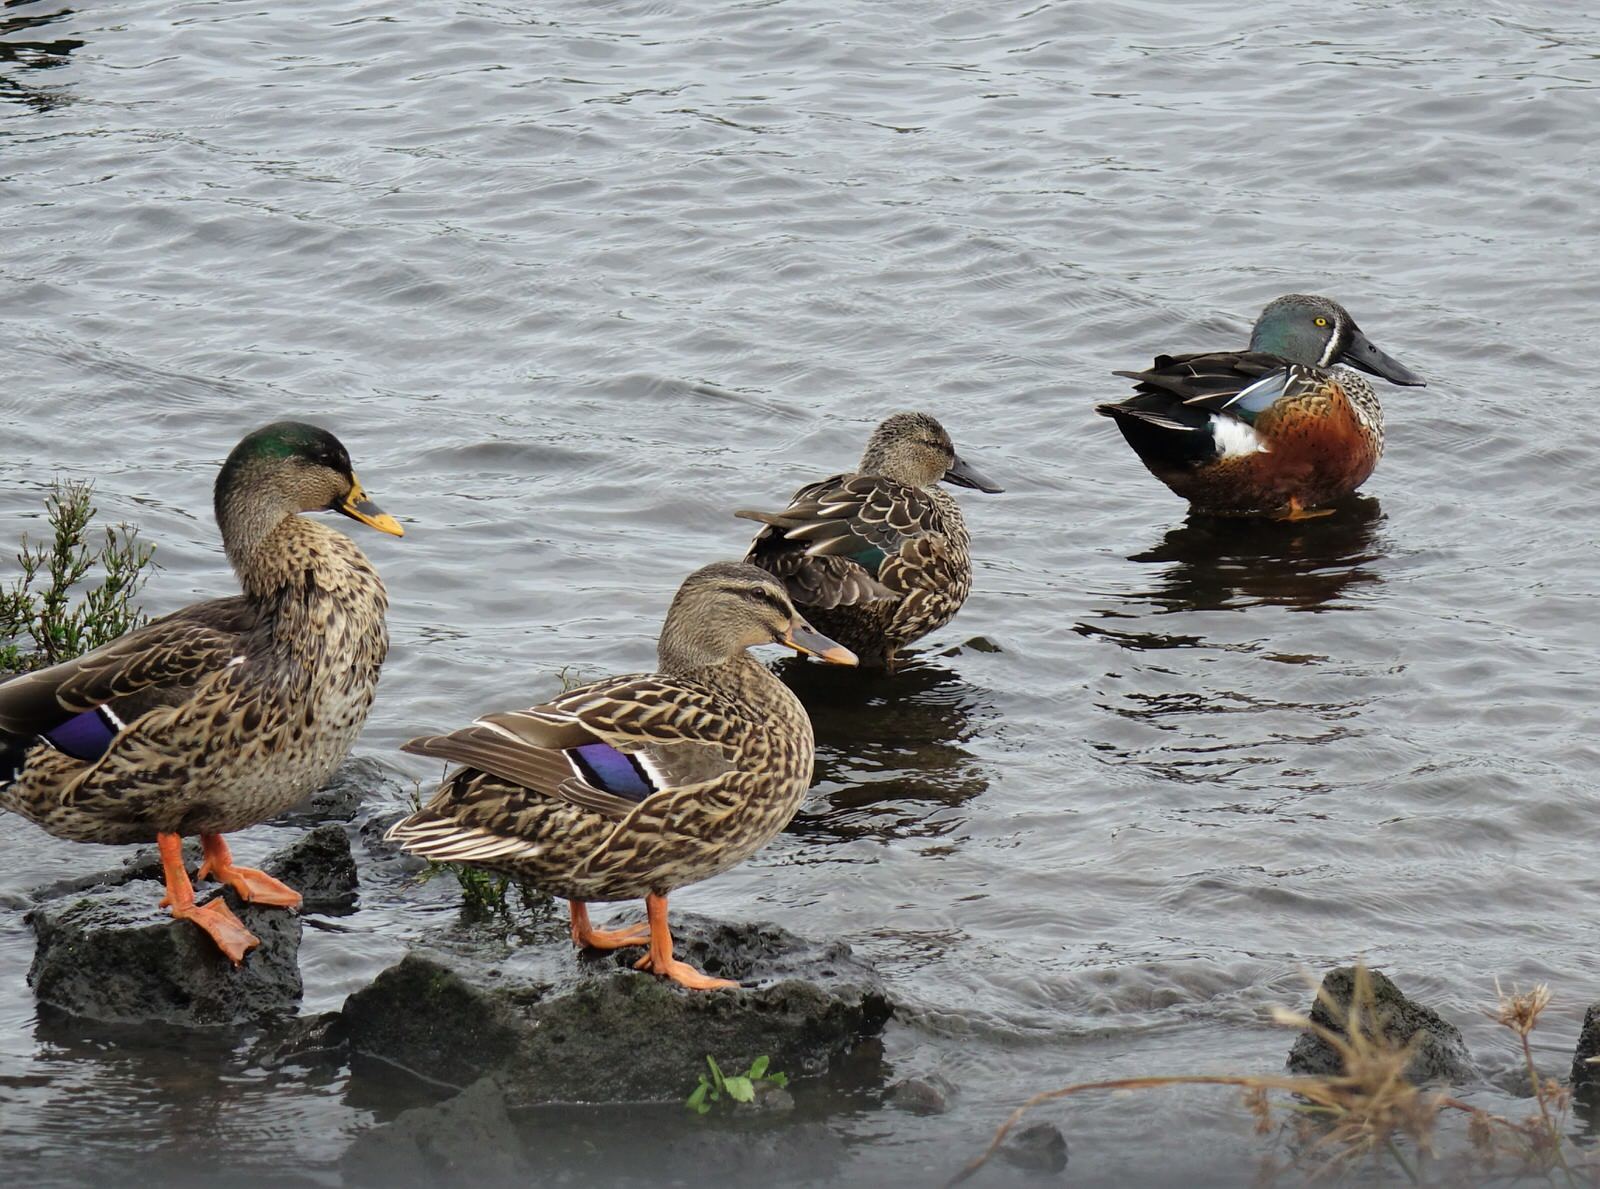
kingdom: Animalia
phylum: Chordata
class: Aves
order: Anseriformes
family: Anatidae
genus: Spatula
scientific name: Spatula rhynchotis
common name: Australian shoveler
